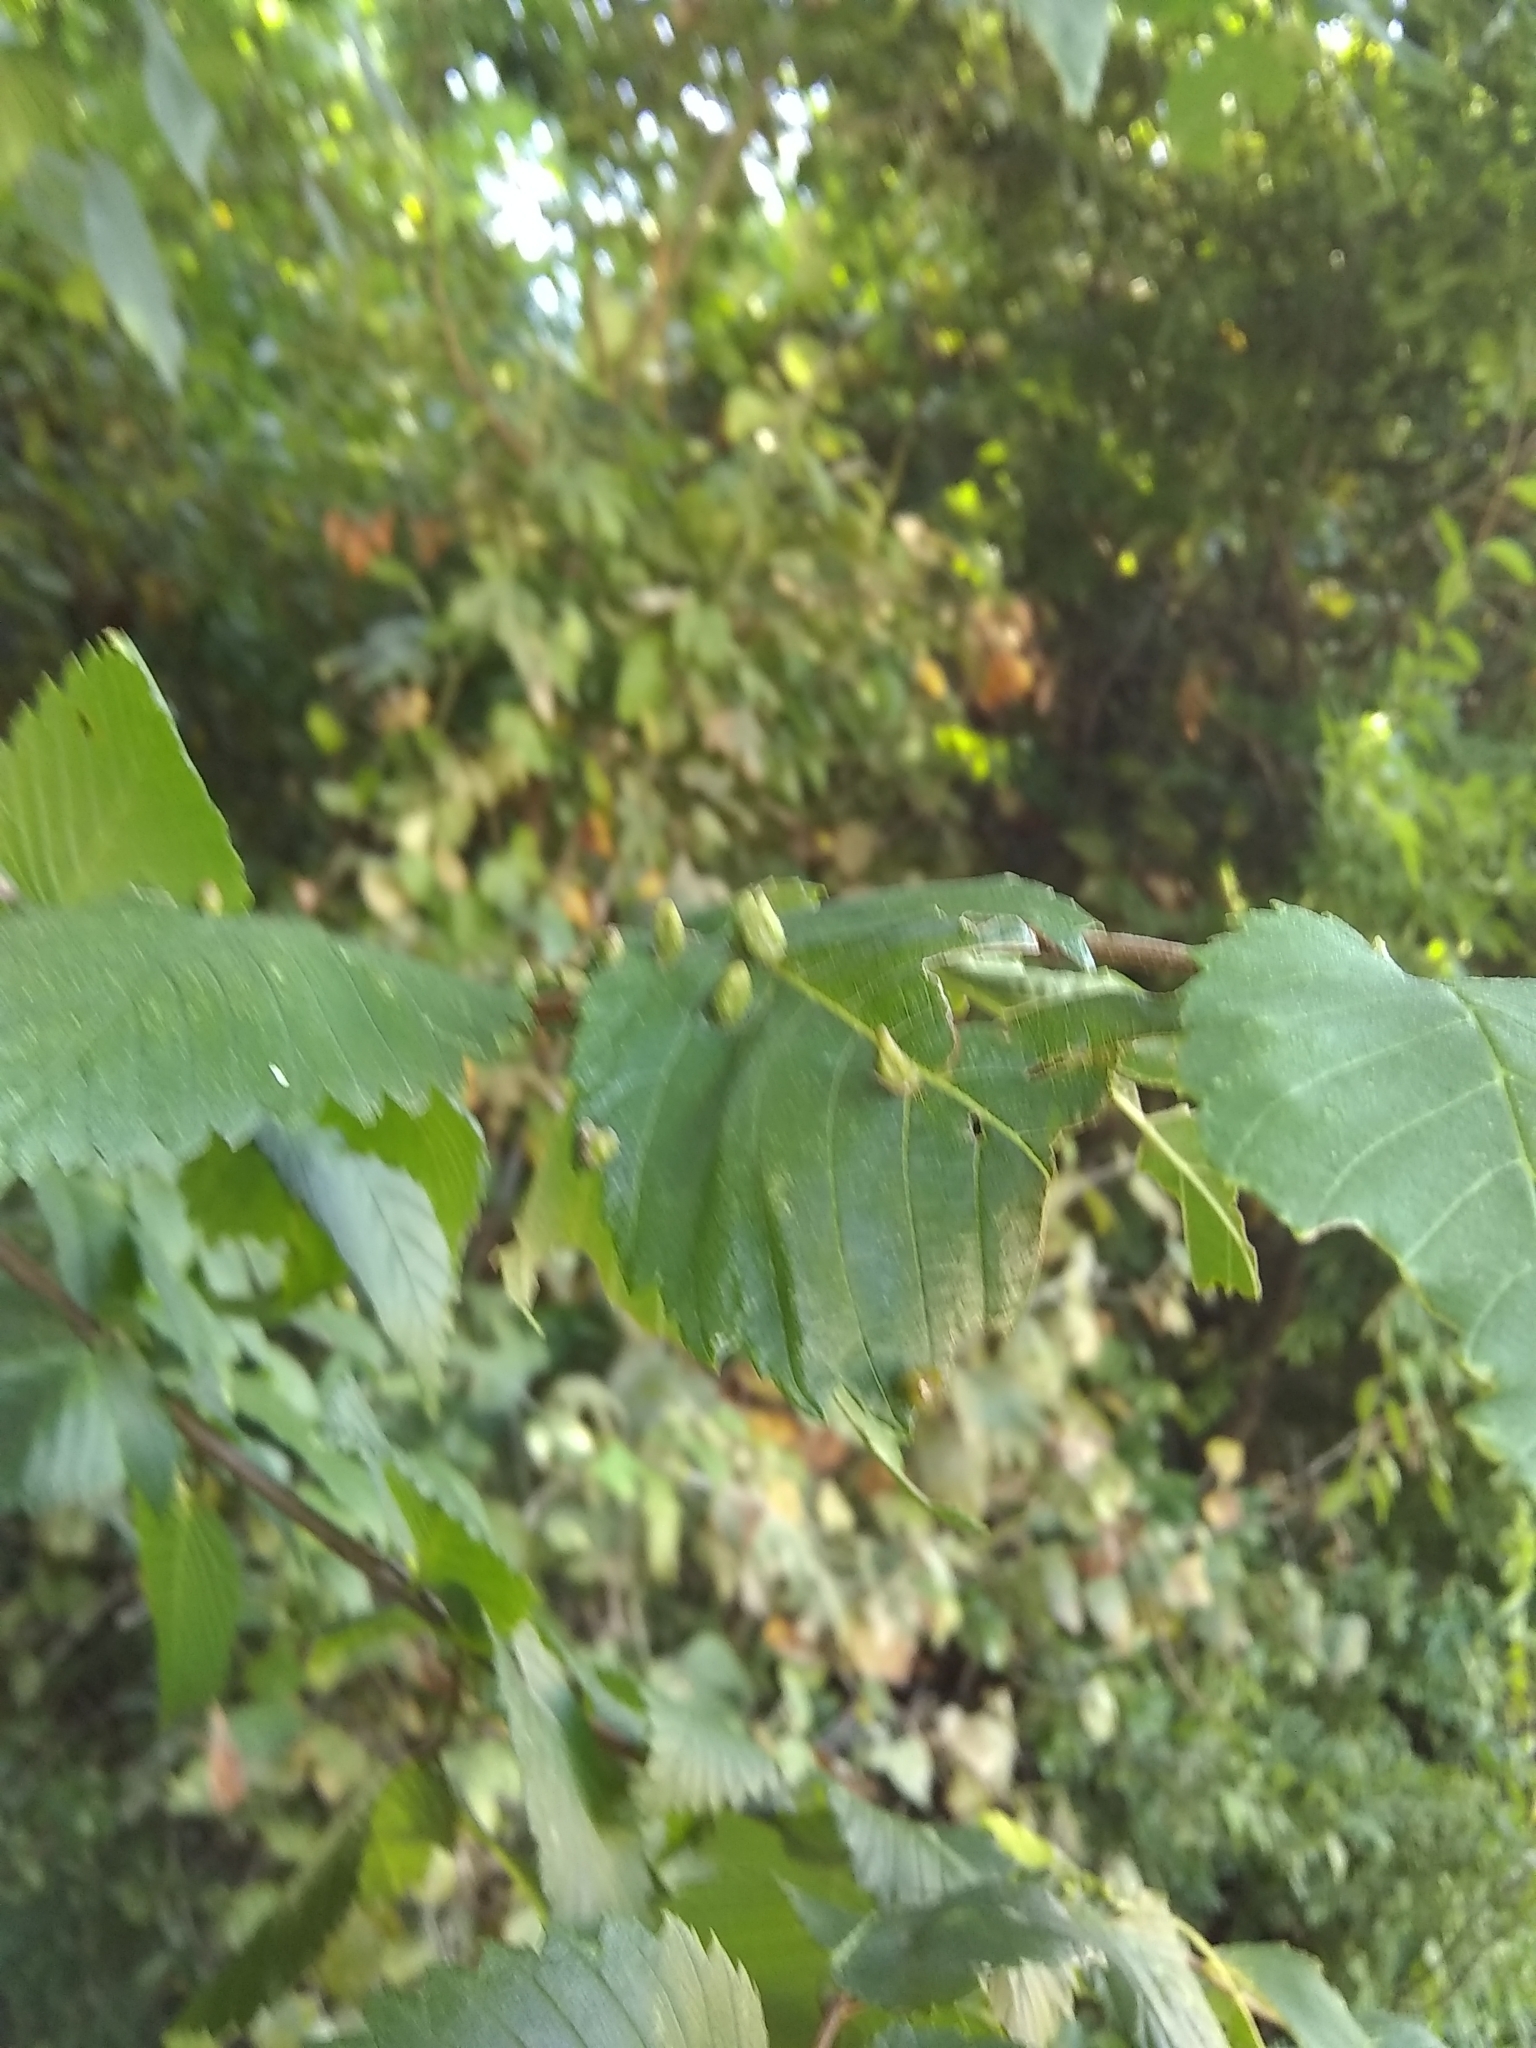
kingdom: Animalia
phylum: Arthropoda
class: Arachnida
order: Trombidiformes
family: Eriophyidae
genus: Aceria
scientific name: Aceria
